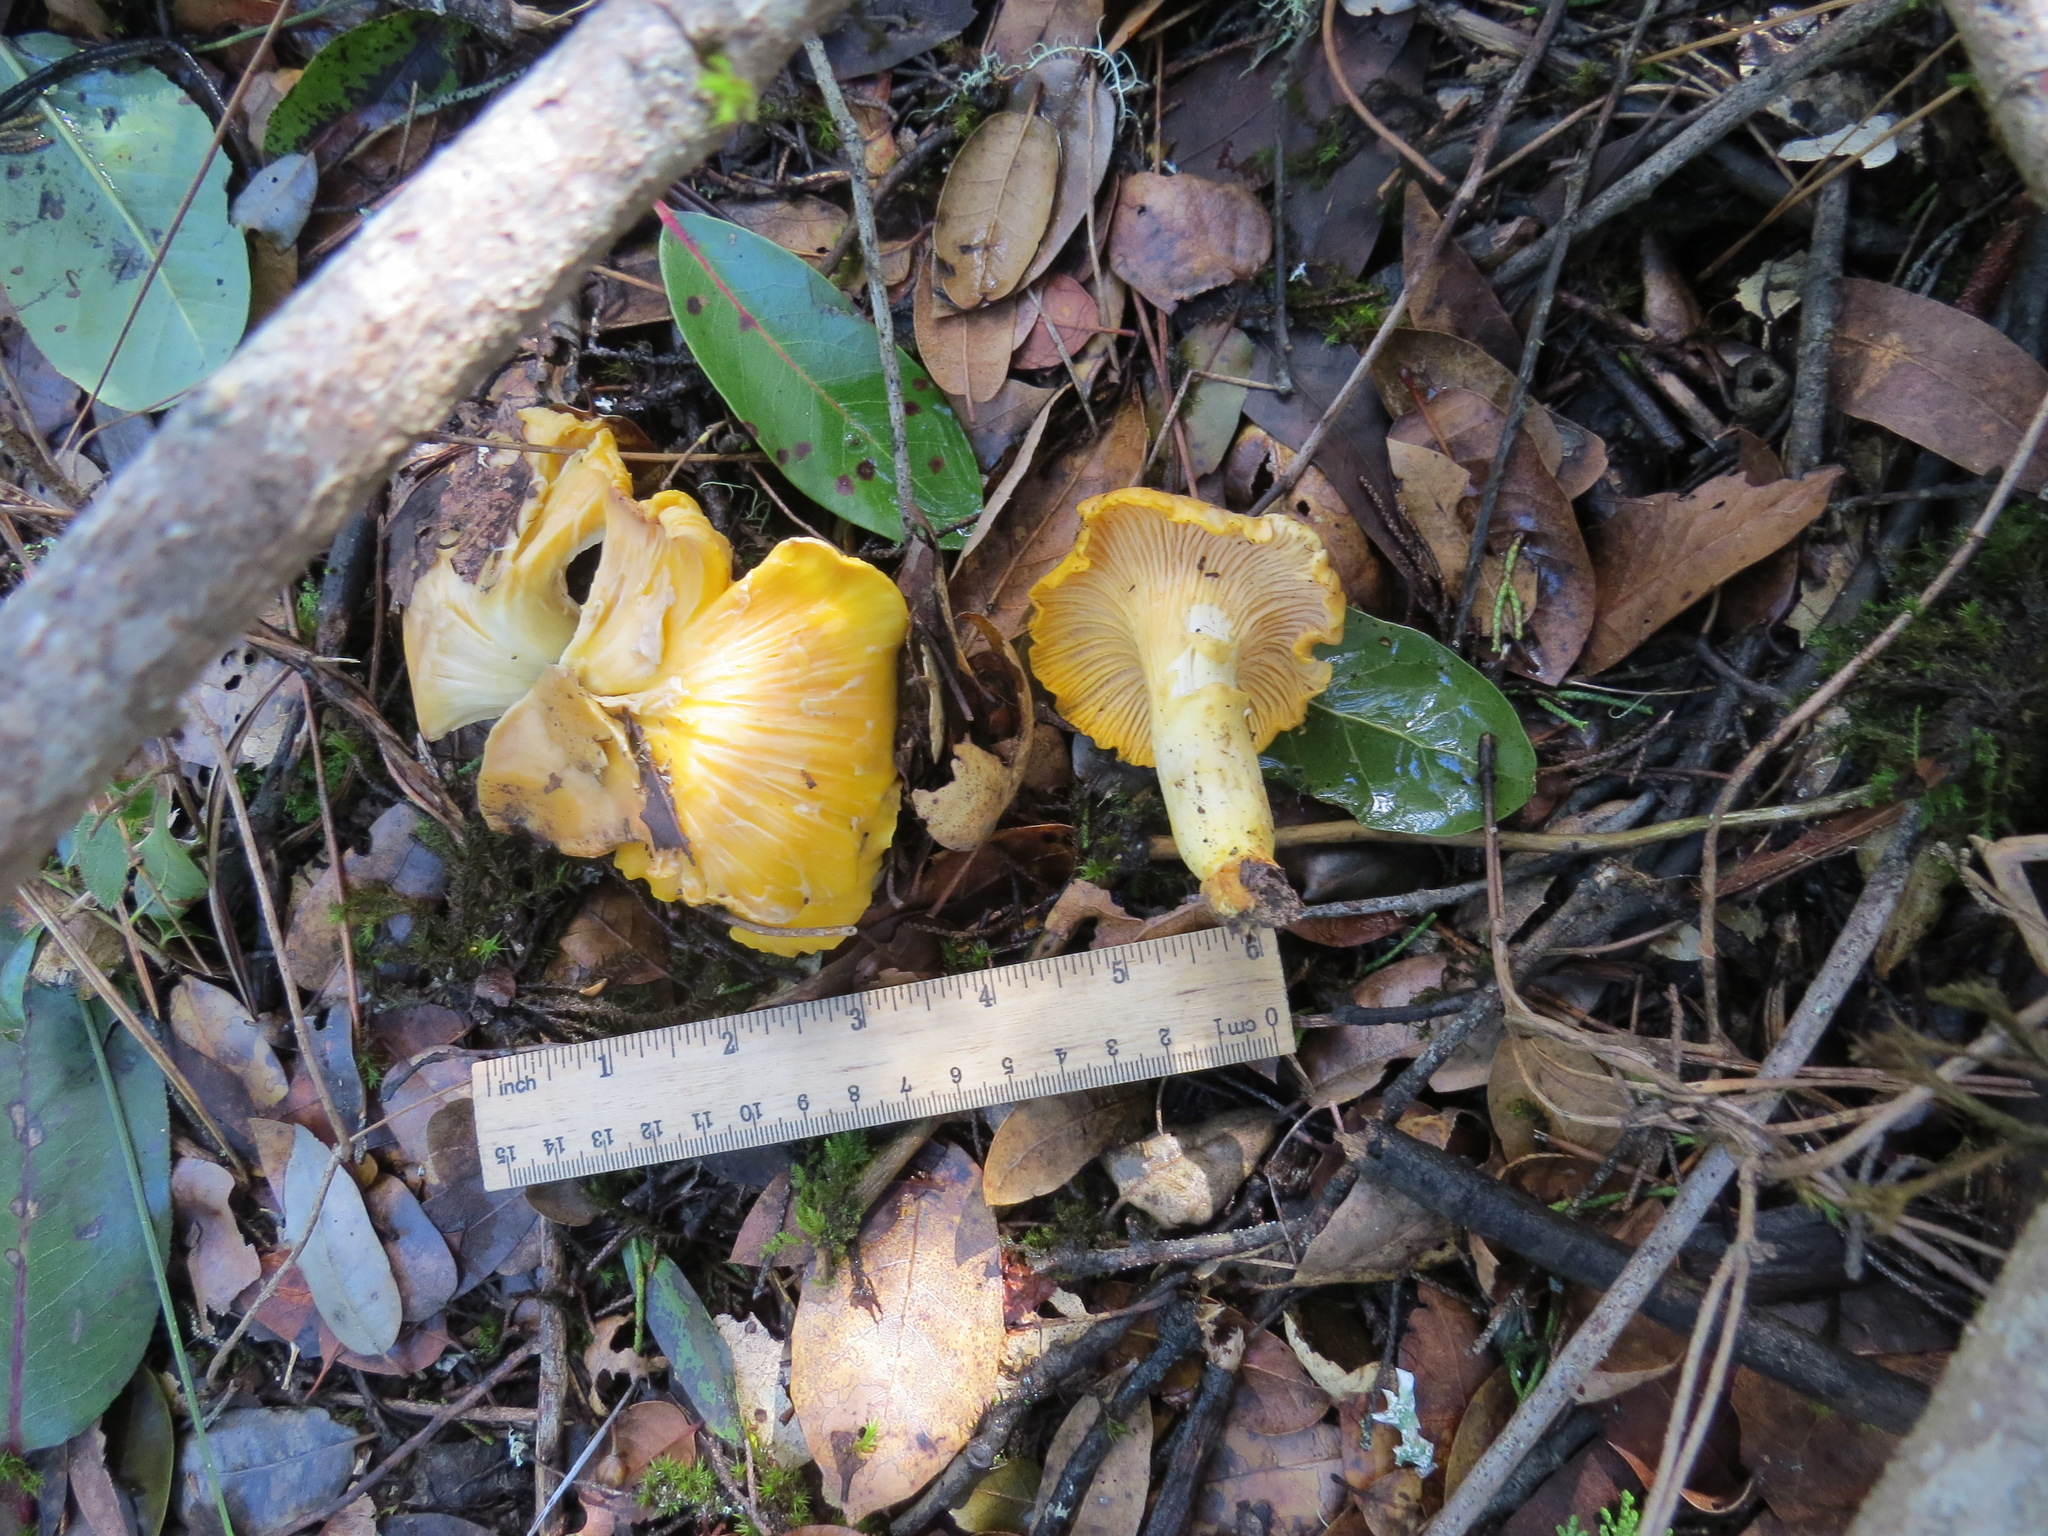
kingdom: Fungi
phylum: Basidiomycota
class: Agaricomycetes
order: Cantharellales
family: Hydnaceae
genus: Cantharellus
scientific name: Cantharellus californicus
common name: California golden chanterelle
